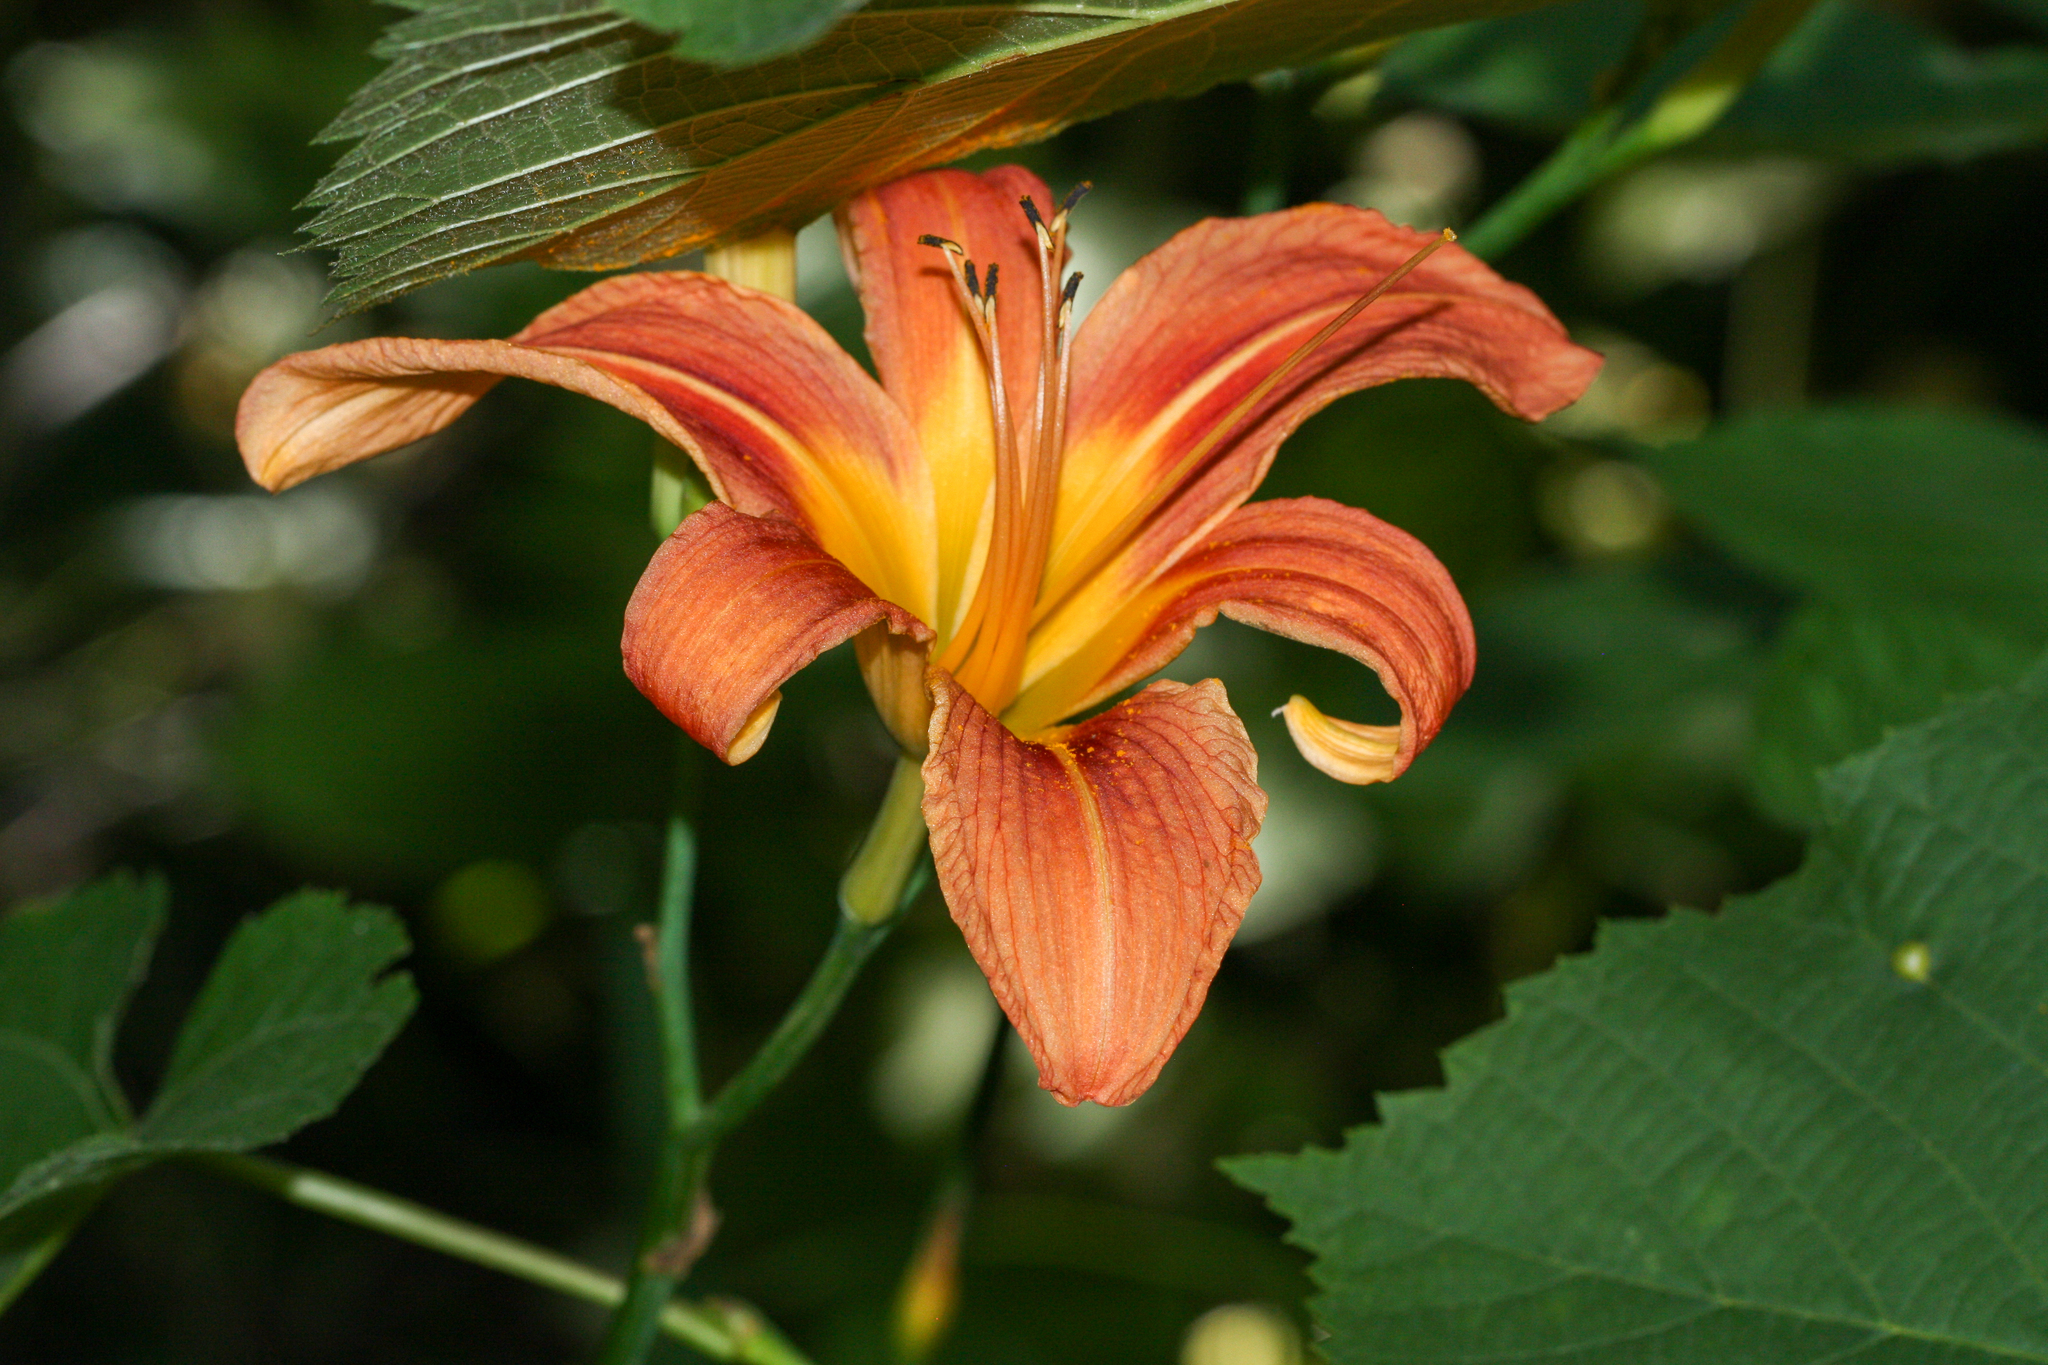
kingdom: Plantae
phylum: Tracheophyta
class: Liliopsida
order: Asparagales
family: Asphodelaceae
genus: Hemerocallis
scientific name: Hemerocallis fulva
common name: Orange day-lily
